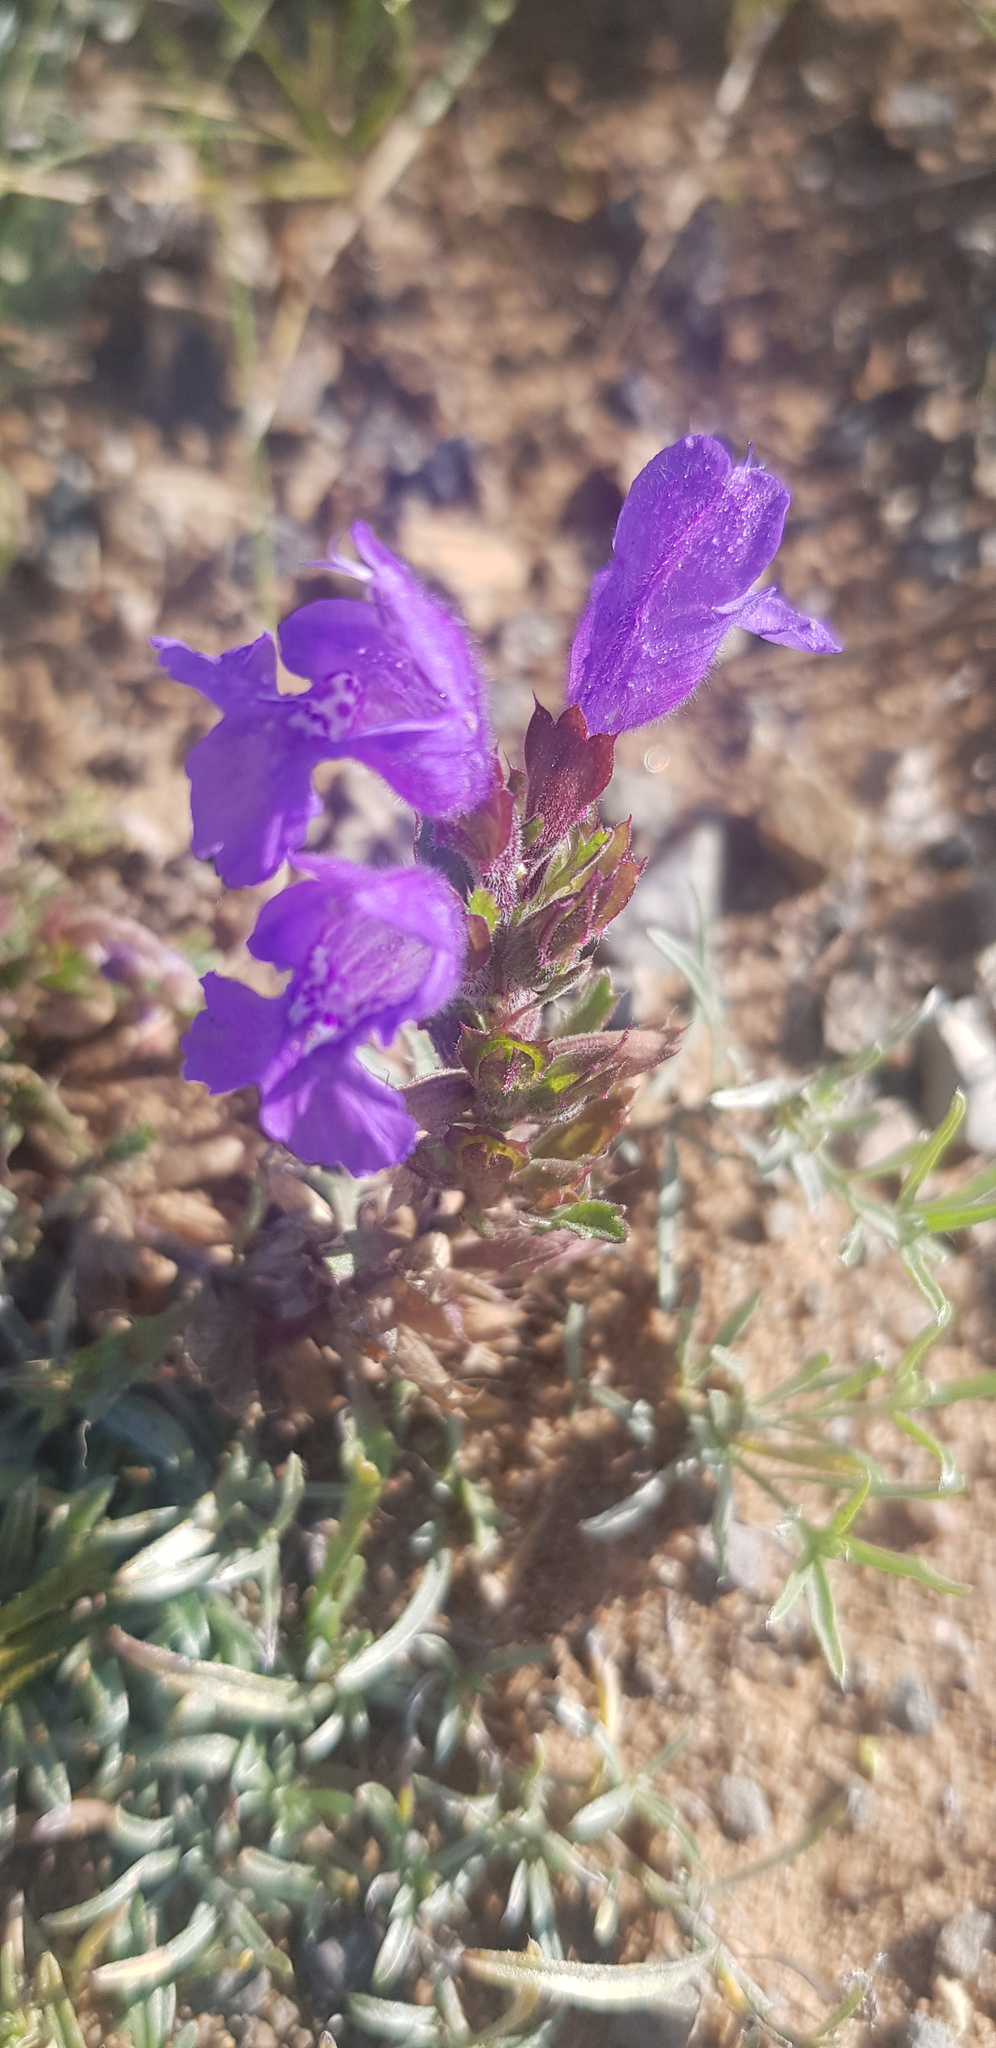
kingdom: Plantae
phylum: Tracheophyta
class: Magnoliopsida
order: Lamiales
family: Lamiaceae
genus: Dracocephalum
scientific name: Dracocephalum foetidum
